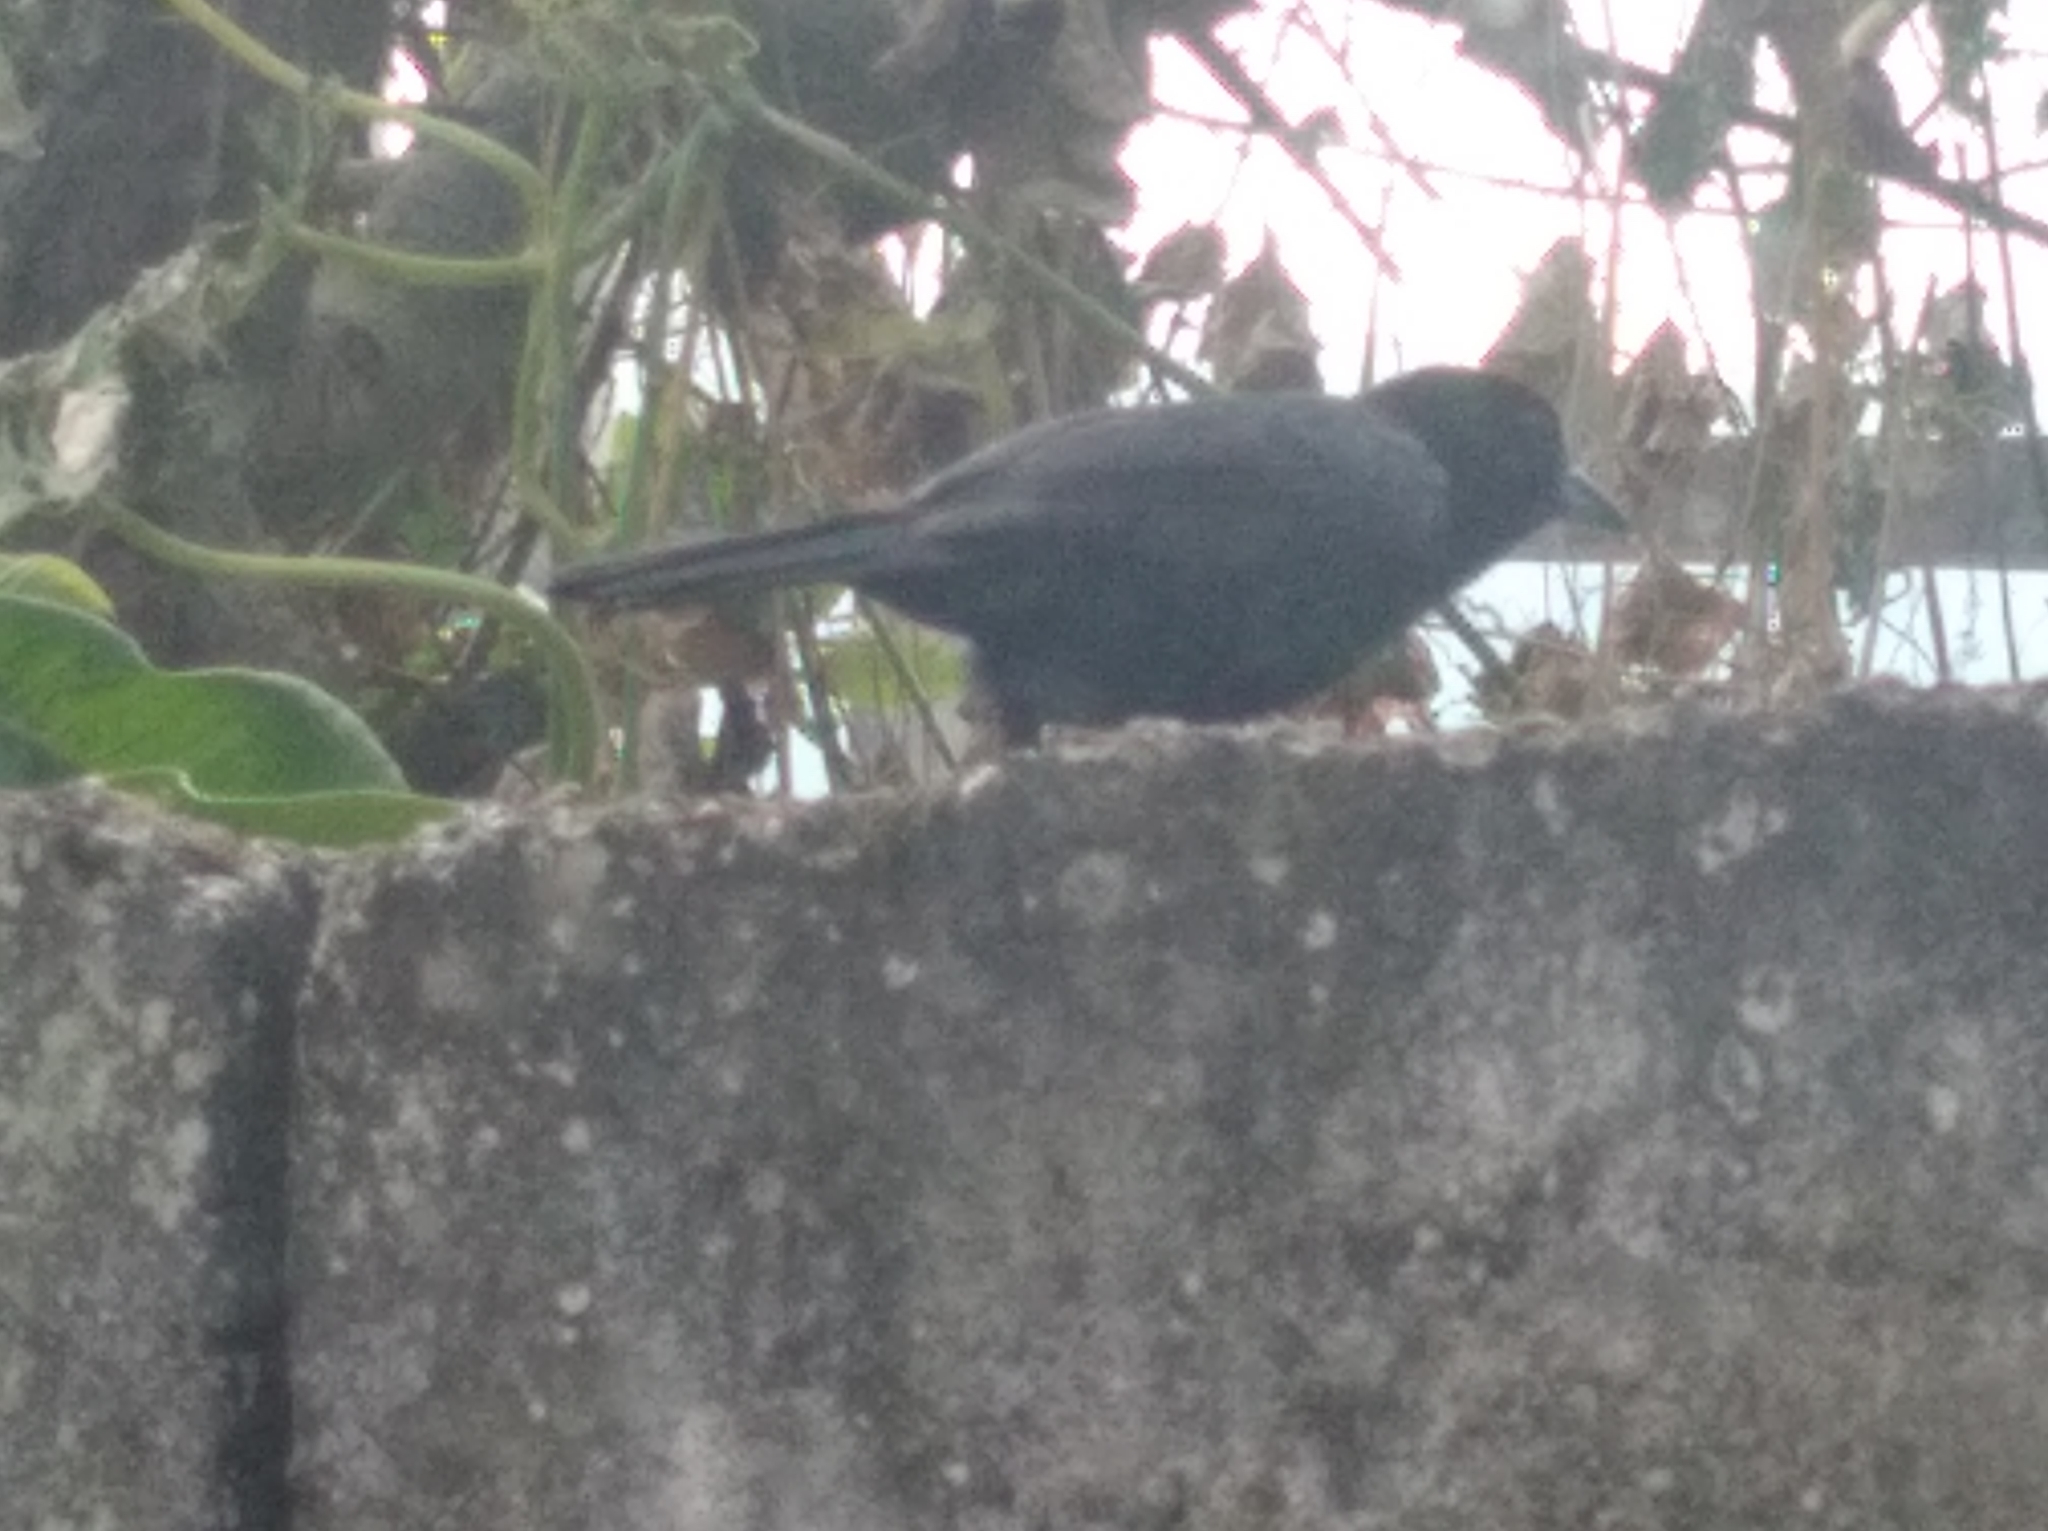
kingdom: Animalia
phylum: Chordata
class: Aves
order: Passeriformes
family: Thraupidae
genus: Tachyphonus
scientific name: Tachyphonus rufus
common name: White-lined tanager
